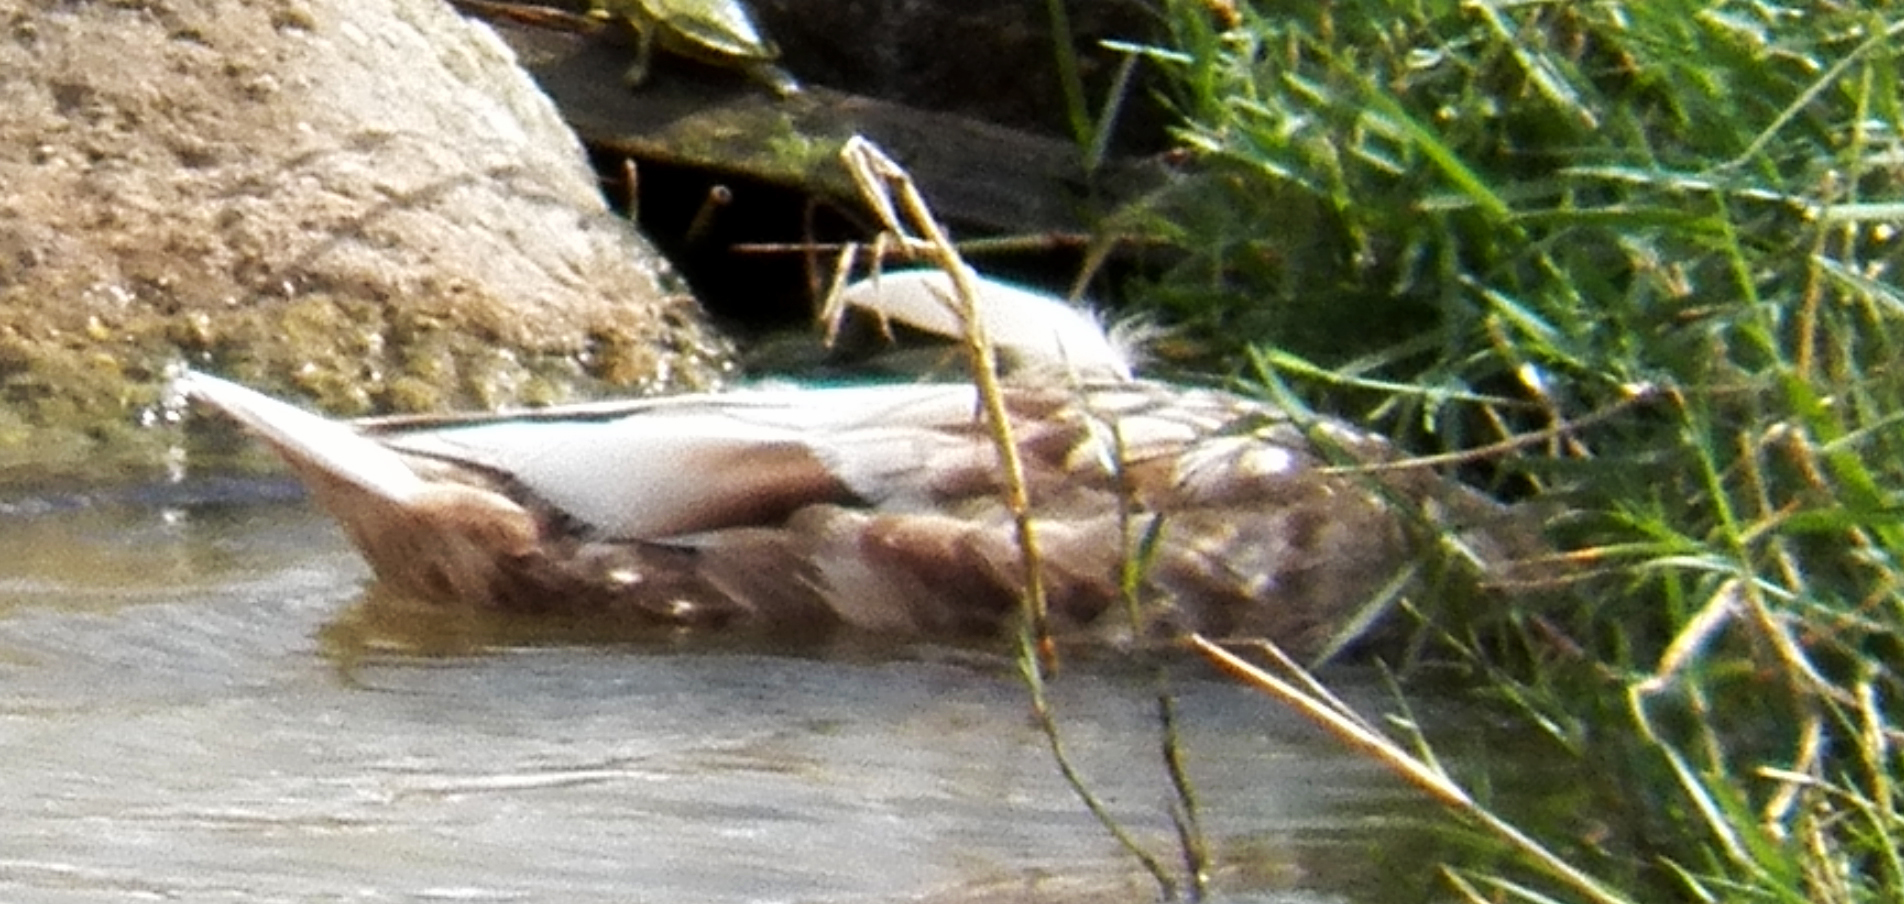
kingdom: Animalia
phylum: Chordata
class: Aves
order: Anseriformes
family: Anatidae
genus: Anas
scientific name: Anas platyrhynchos
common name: Mallard
